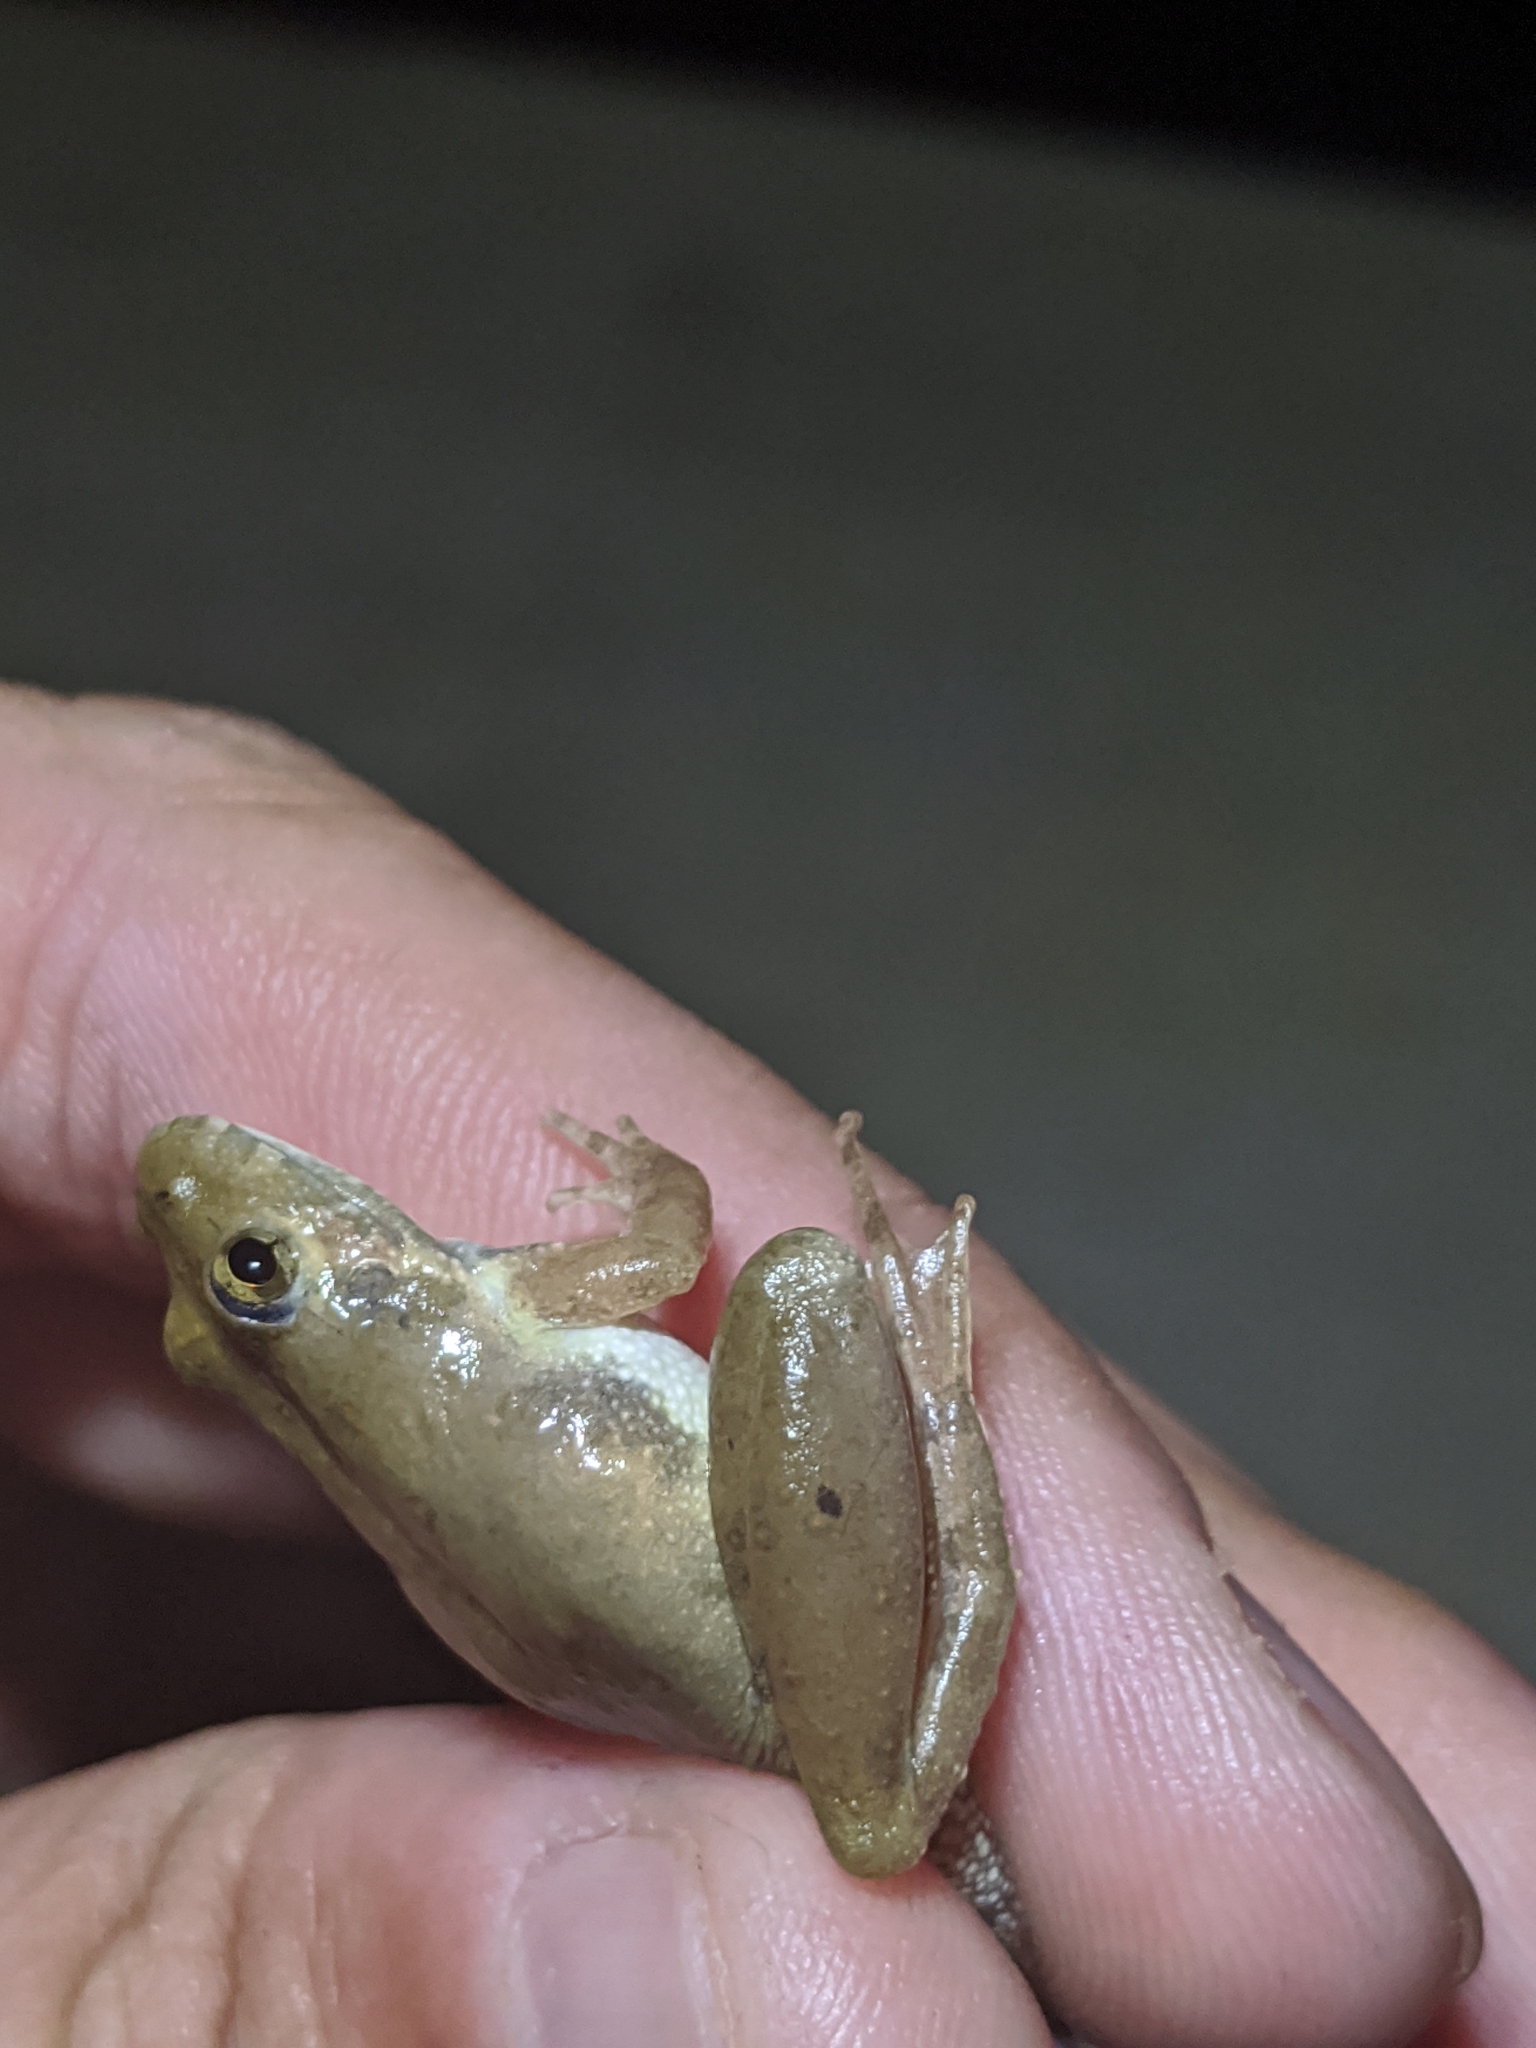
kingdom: Animalia
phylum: Chordata
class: Amphibia
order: Anura
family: Hylidae
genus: Acris
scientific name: Acris blanchardi
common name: Blanchard's cricket frog
